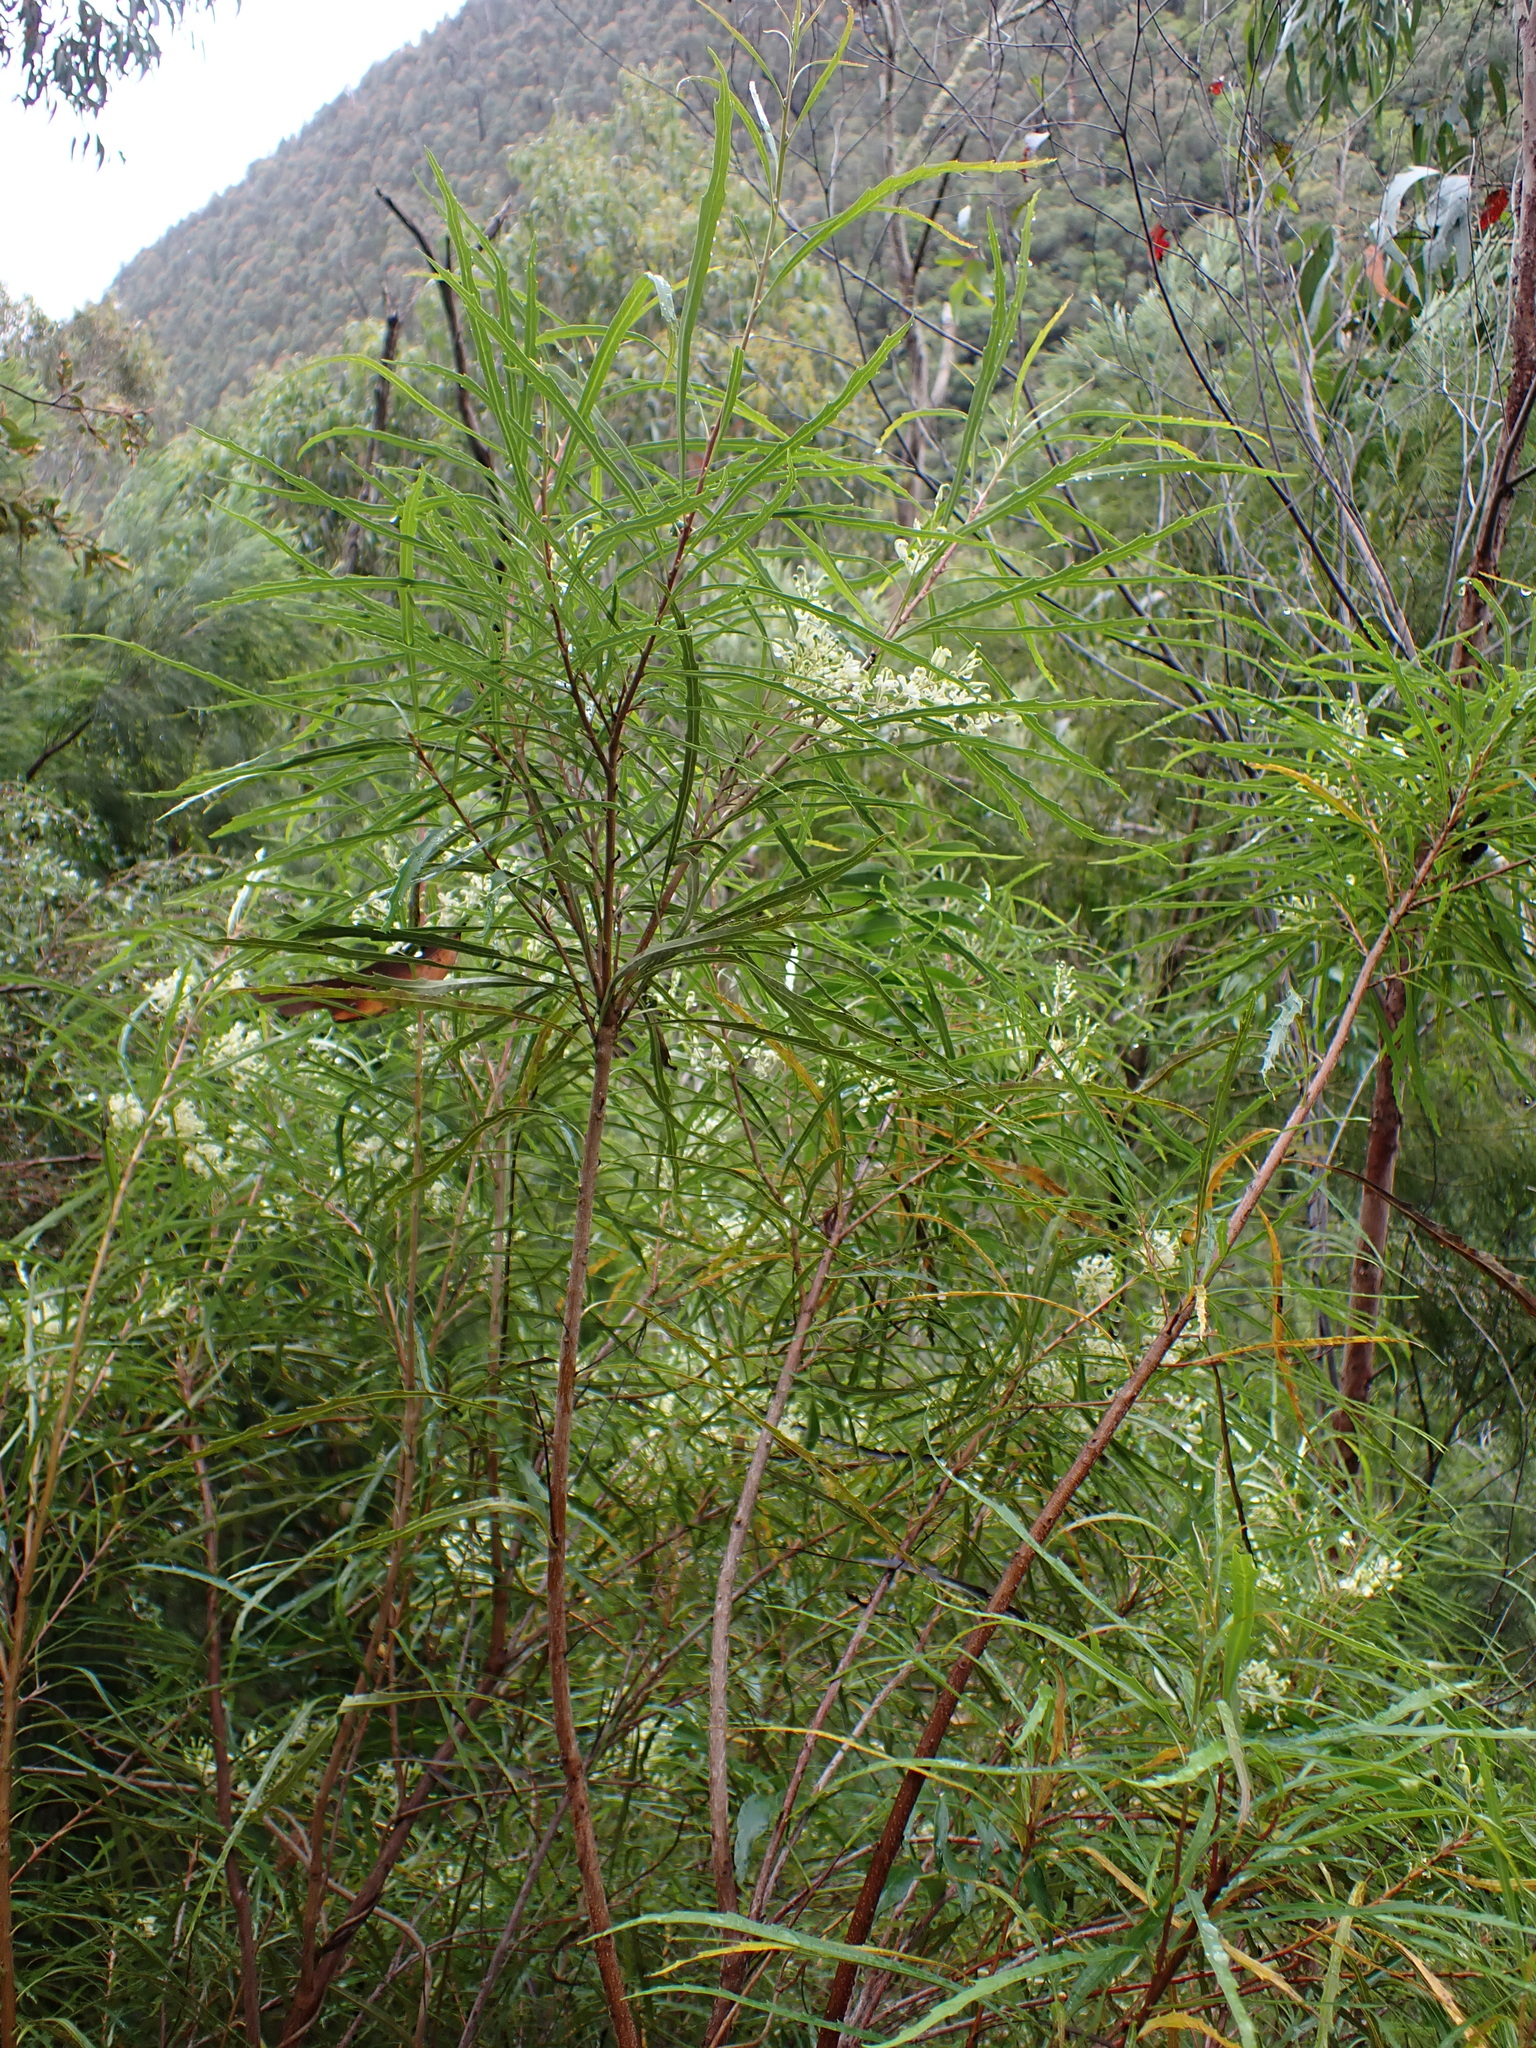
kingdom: Plantae
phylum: Tracheophyta
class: Magnoliopsida
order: Proteales
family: Proteaceae
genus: Lomatia
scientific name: Lomatia myricoides
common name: Longleaf lomatia
